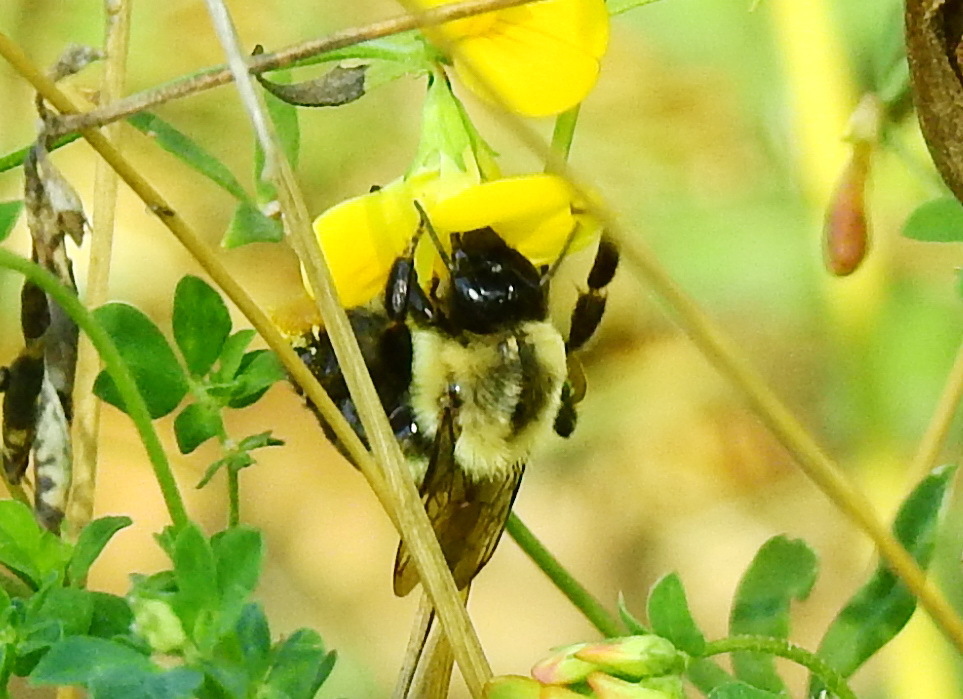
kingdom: Animalia
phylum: Arthropoda
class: Insecta
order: Hymenoptera
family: Apidae
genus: Bombus
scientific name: Bombus impatiens
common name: Common eastern bumble bee
